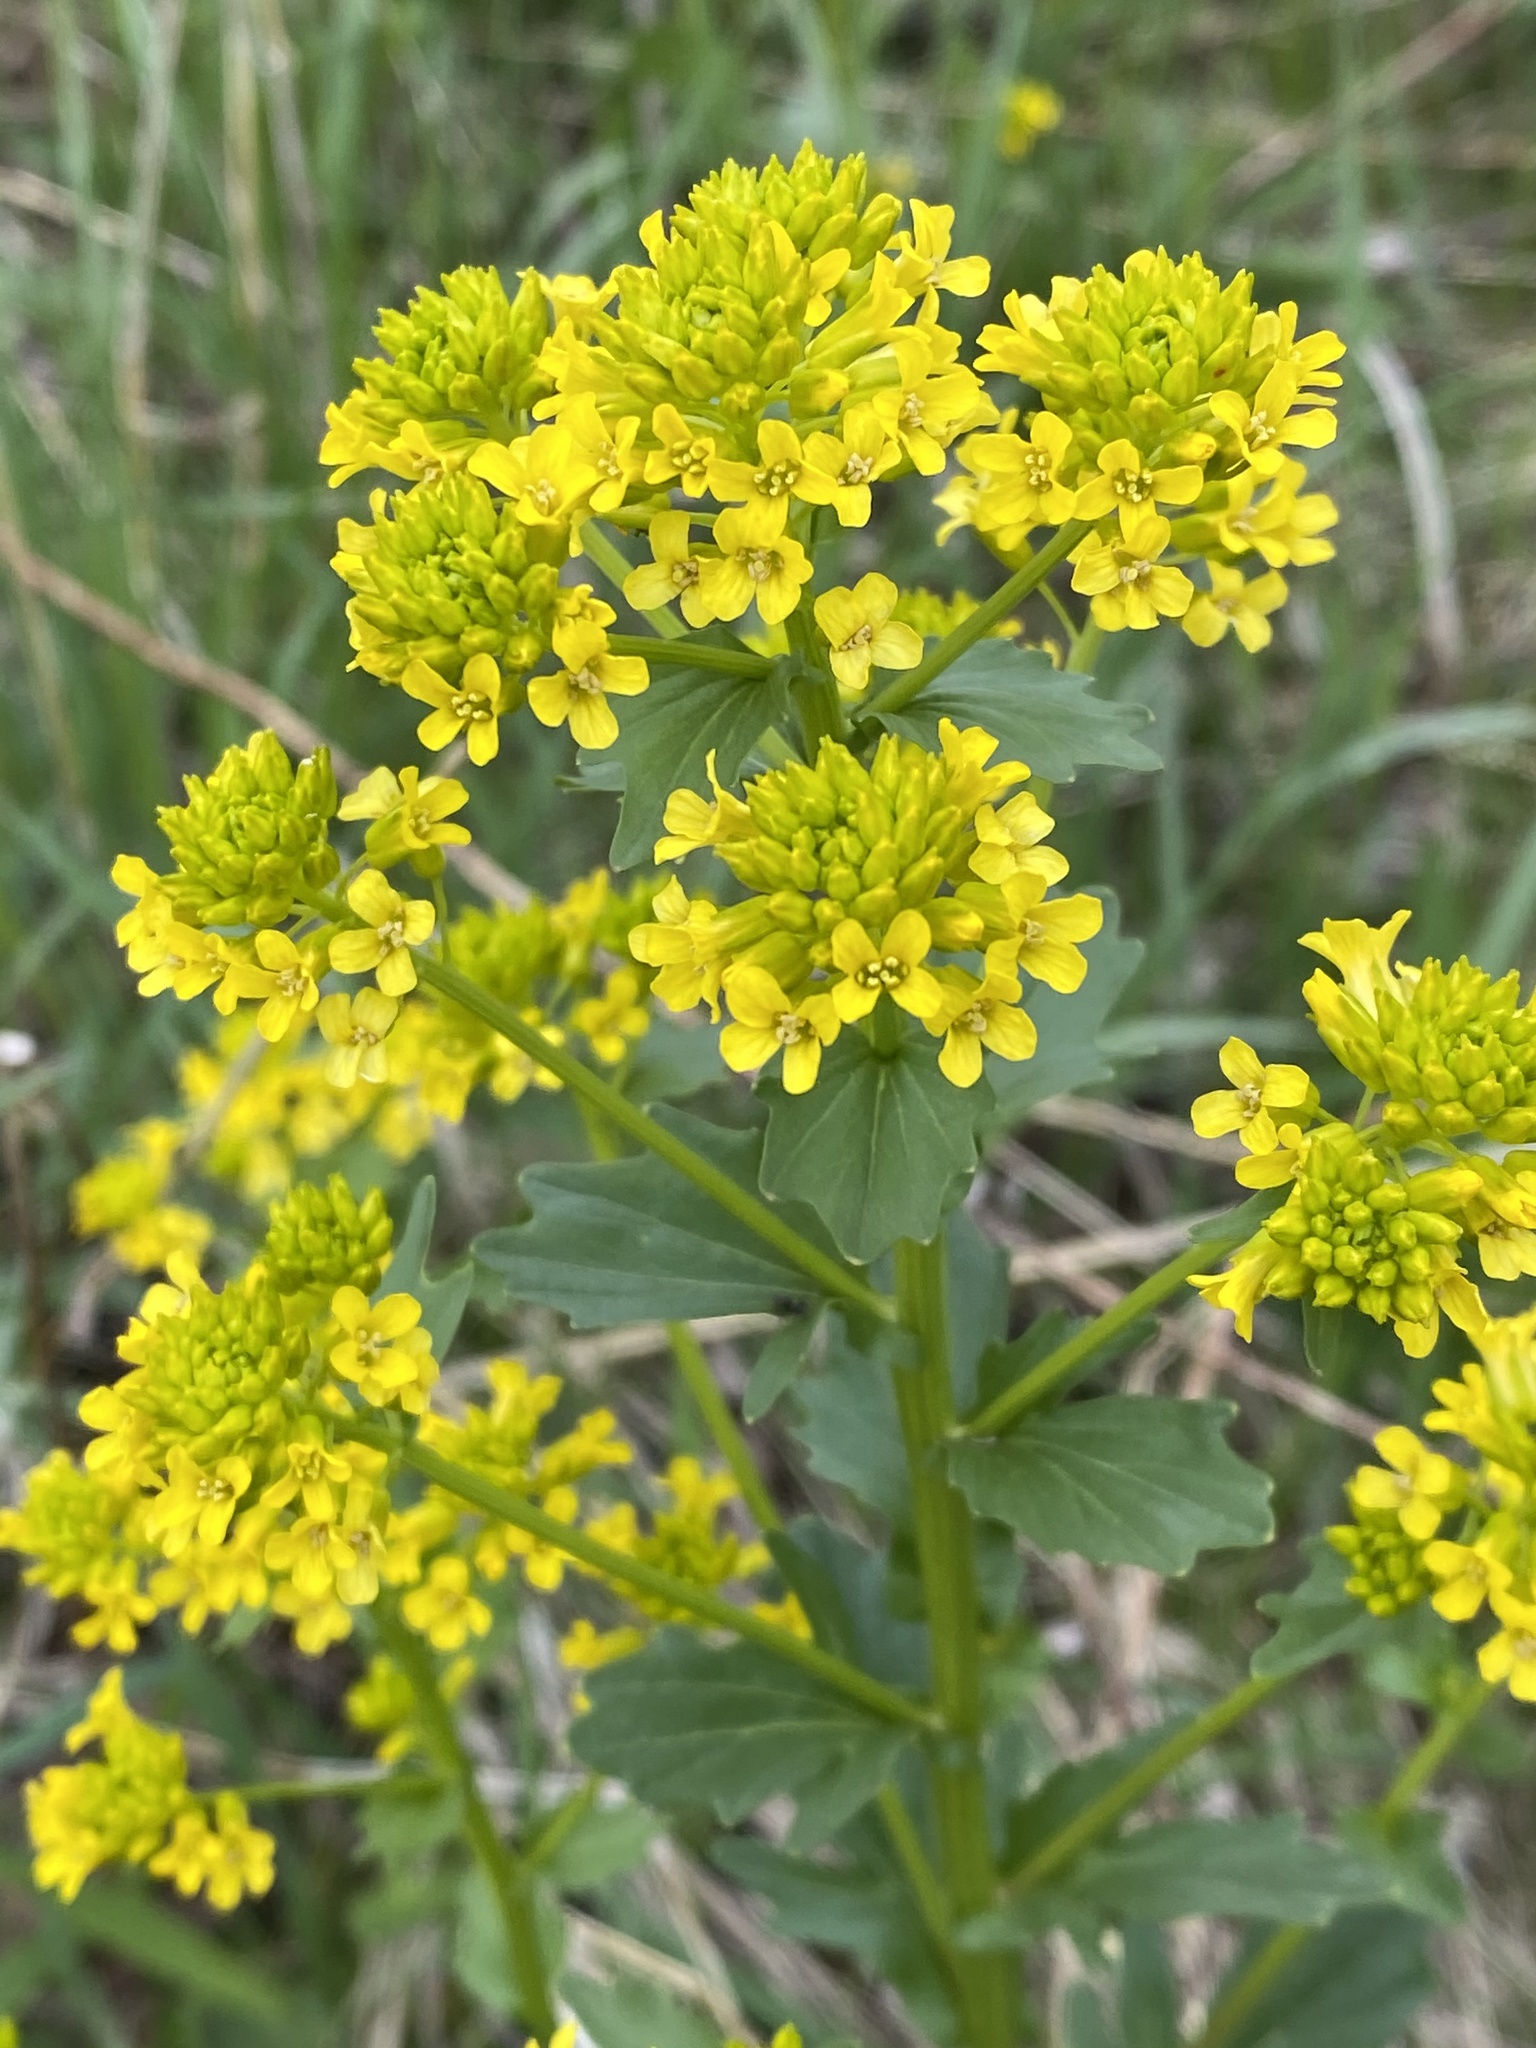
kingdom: Plantae
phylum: Tracheophyta
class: Magnoliopsida
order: Brassicales
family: Brassicaceae
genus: Barbarea
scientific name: Barbarea vulgaris
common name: Cressy-greens
